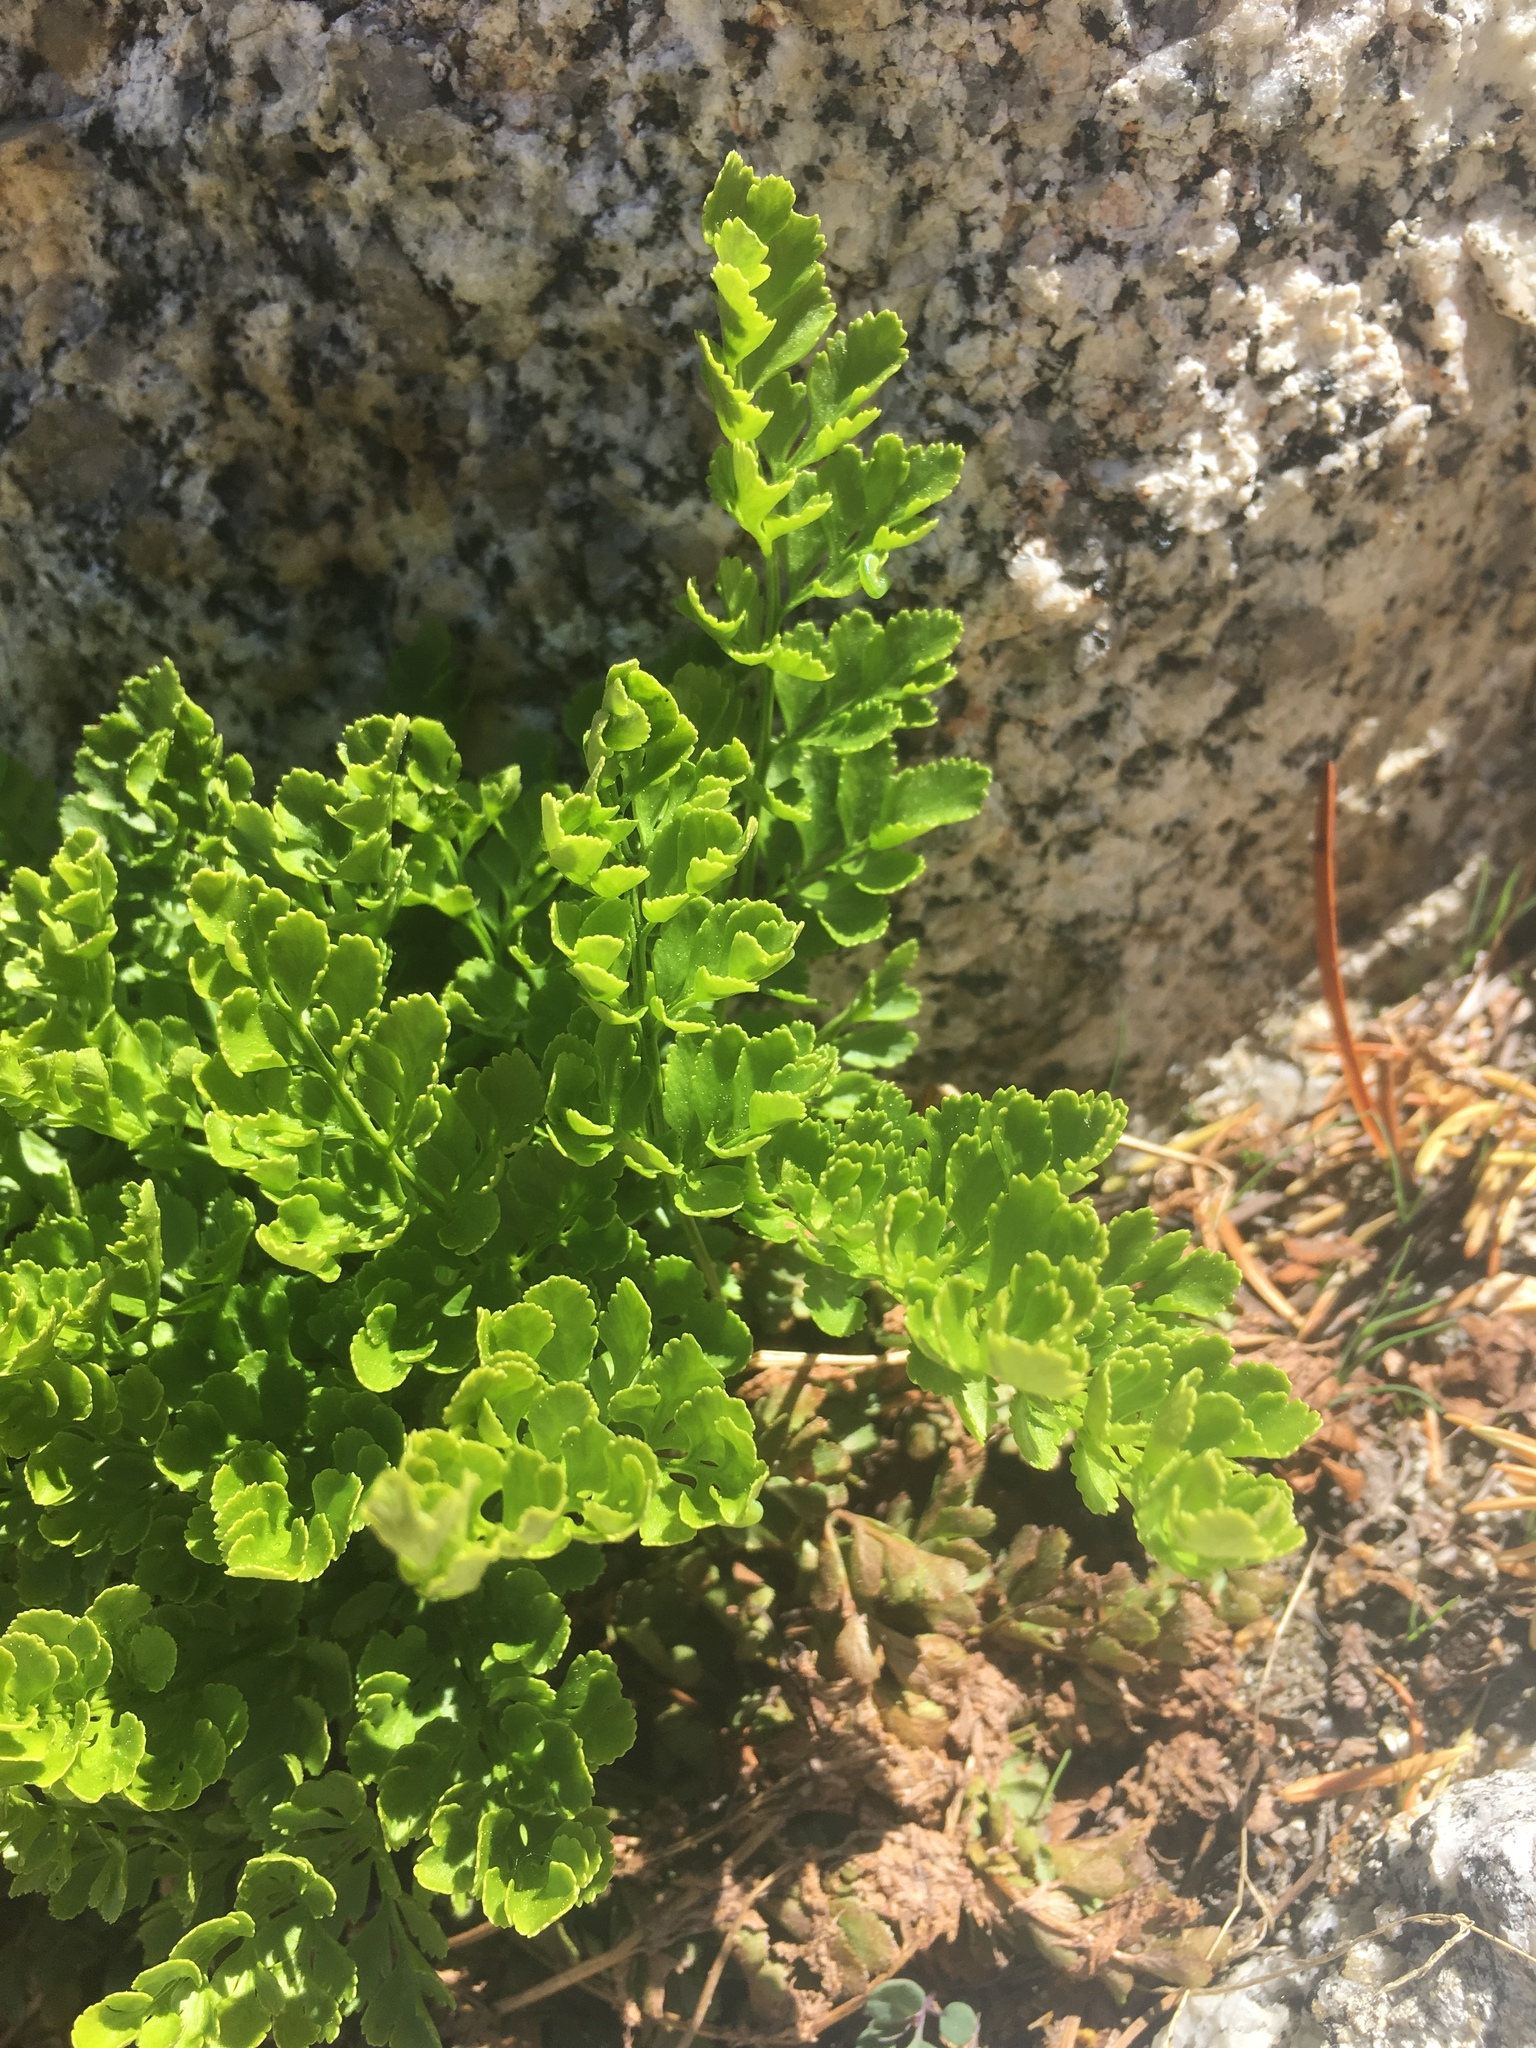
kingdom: Plantae
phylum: Tracheophyta
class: Polypodiopsida
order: Polypodiales
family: Pteridaceae
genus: Cryptogramma
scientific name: Cryptogramma acrostichoides
